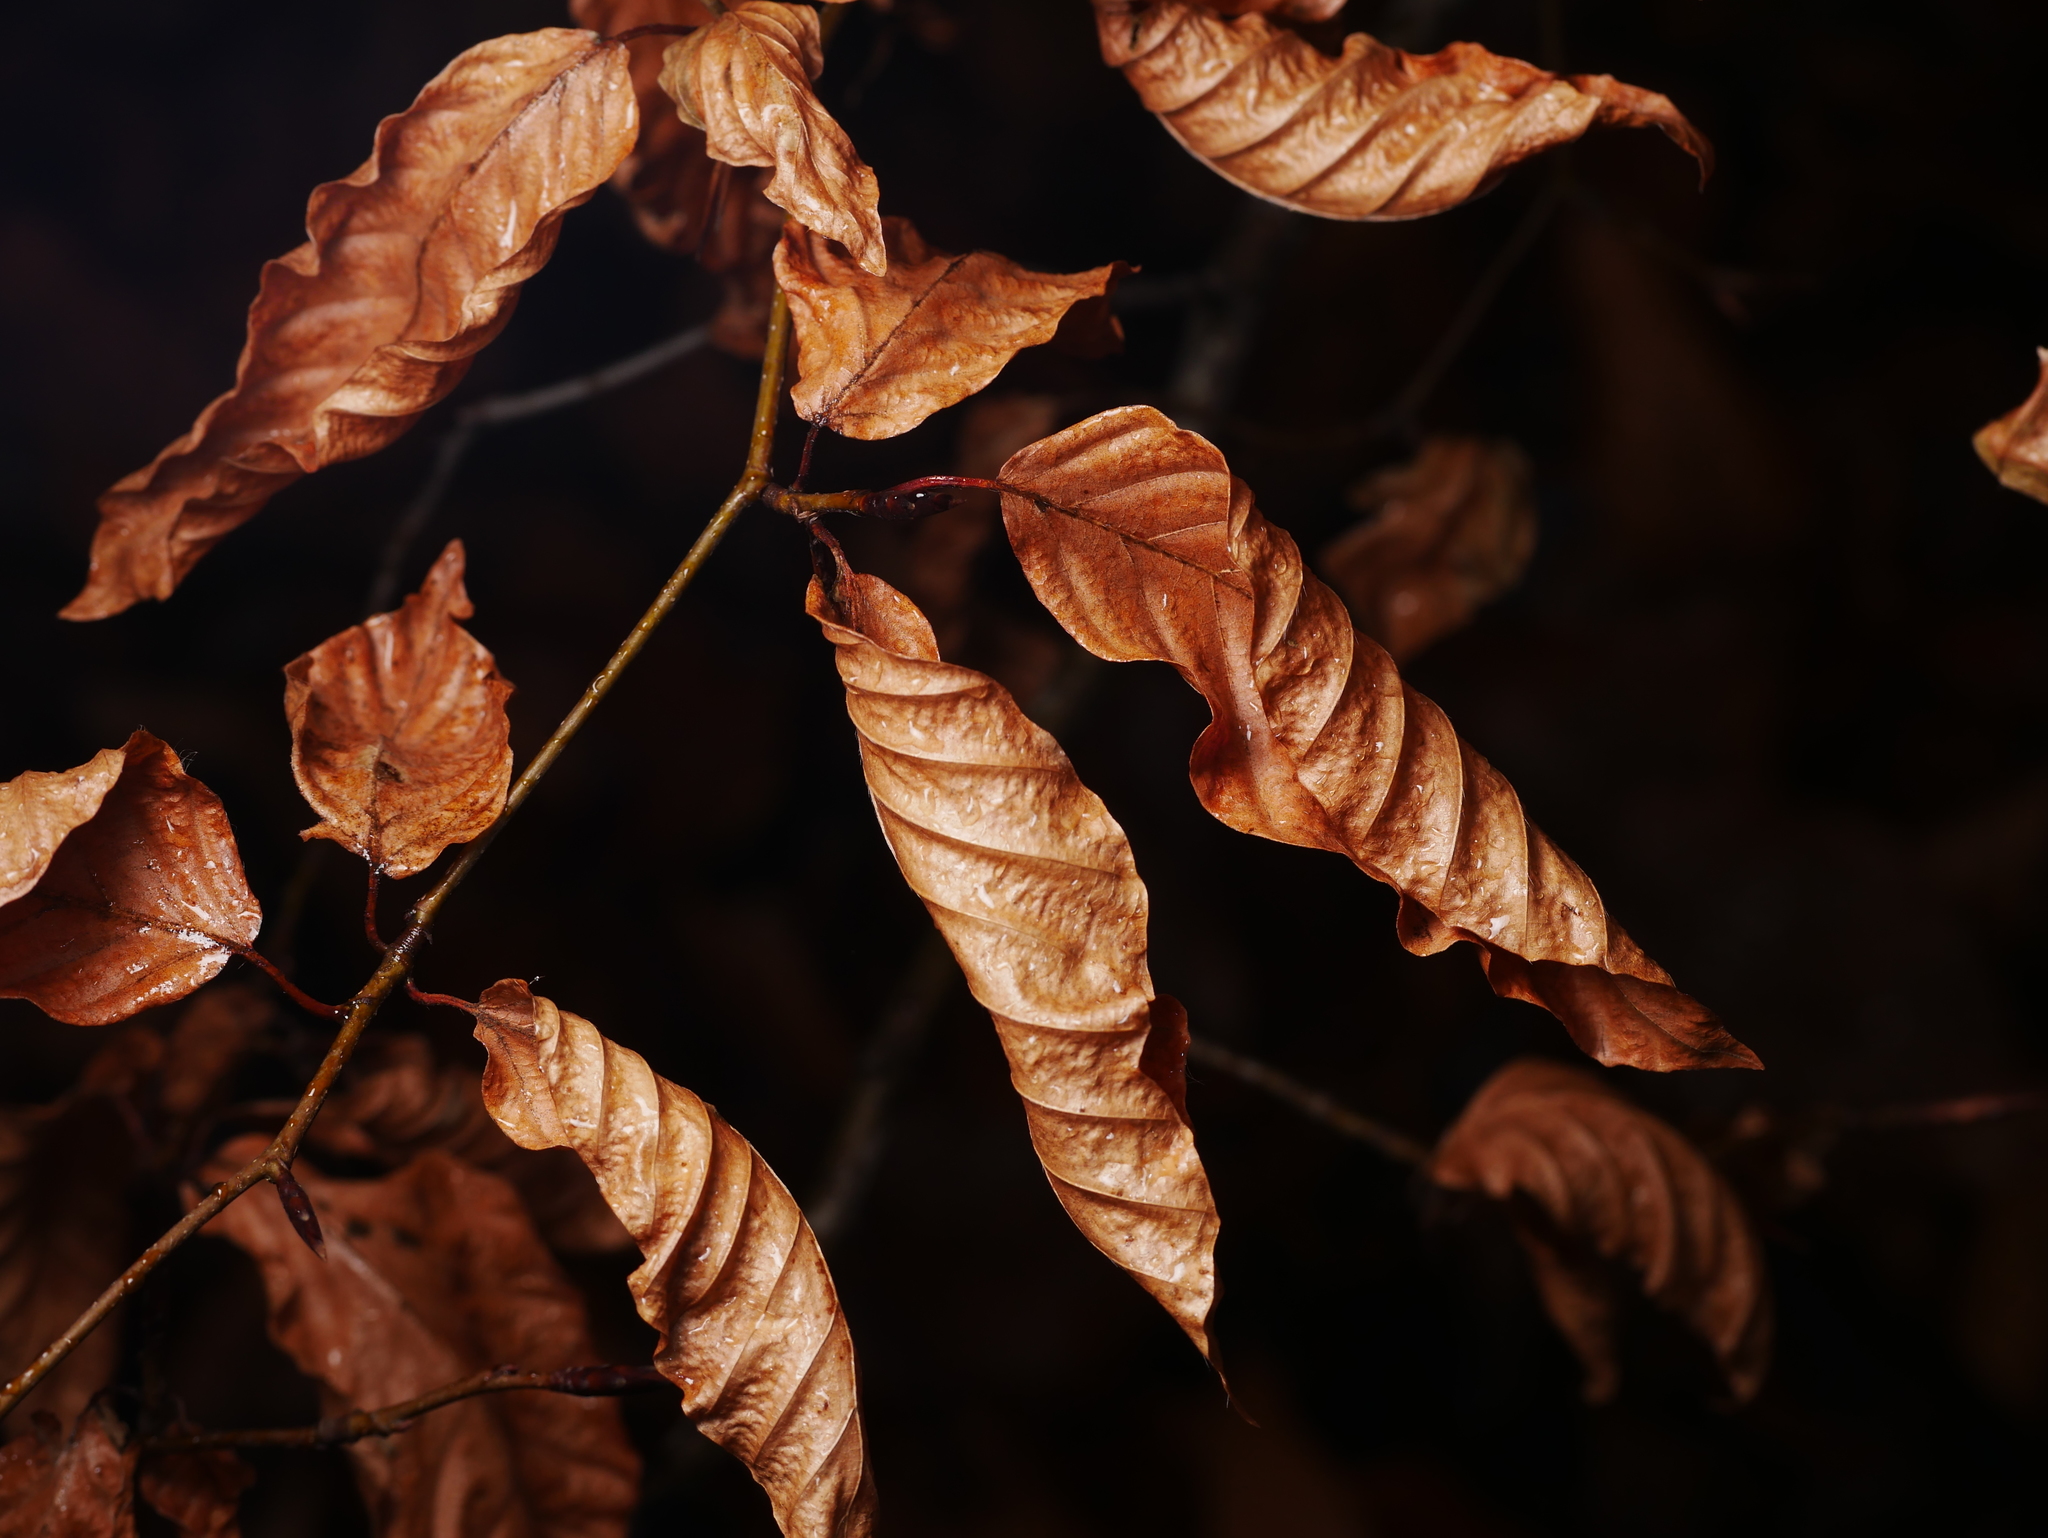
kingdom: Plantae
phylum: Tracheophyta
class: Magnoliopsida
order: Fagales
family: Fagaceae
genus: Fagus
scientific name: Fagus sylvatica
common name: Beech
